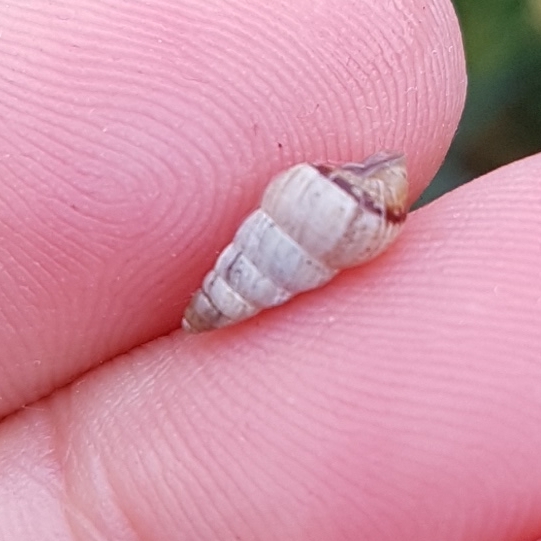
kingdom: Animalia
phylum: Mollusca
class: Gastropoda
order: Stylommatophora
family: Geomitridae
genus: Cochlicella
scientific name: Cochlicella acuta
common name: Pointed snail
